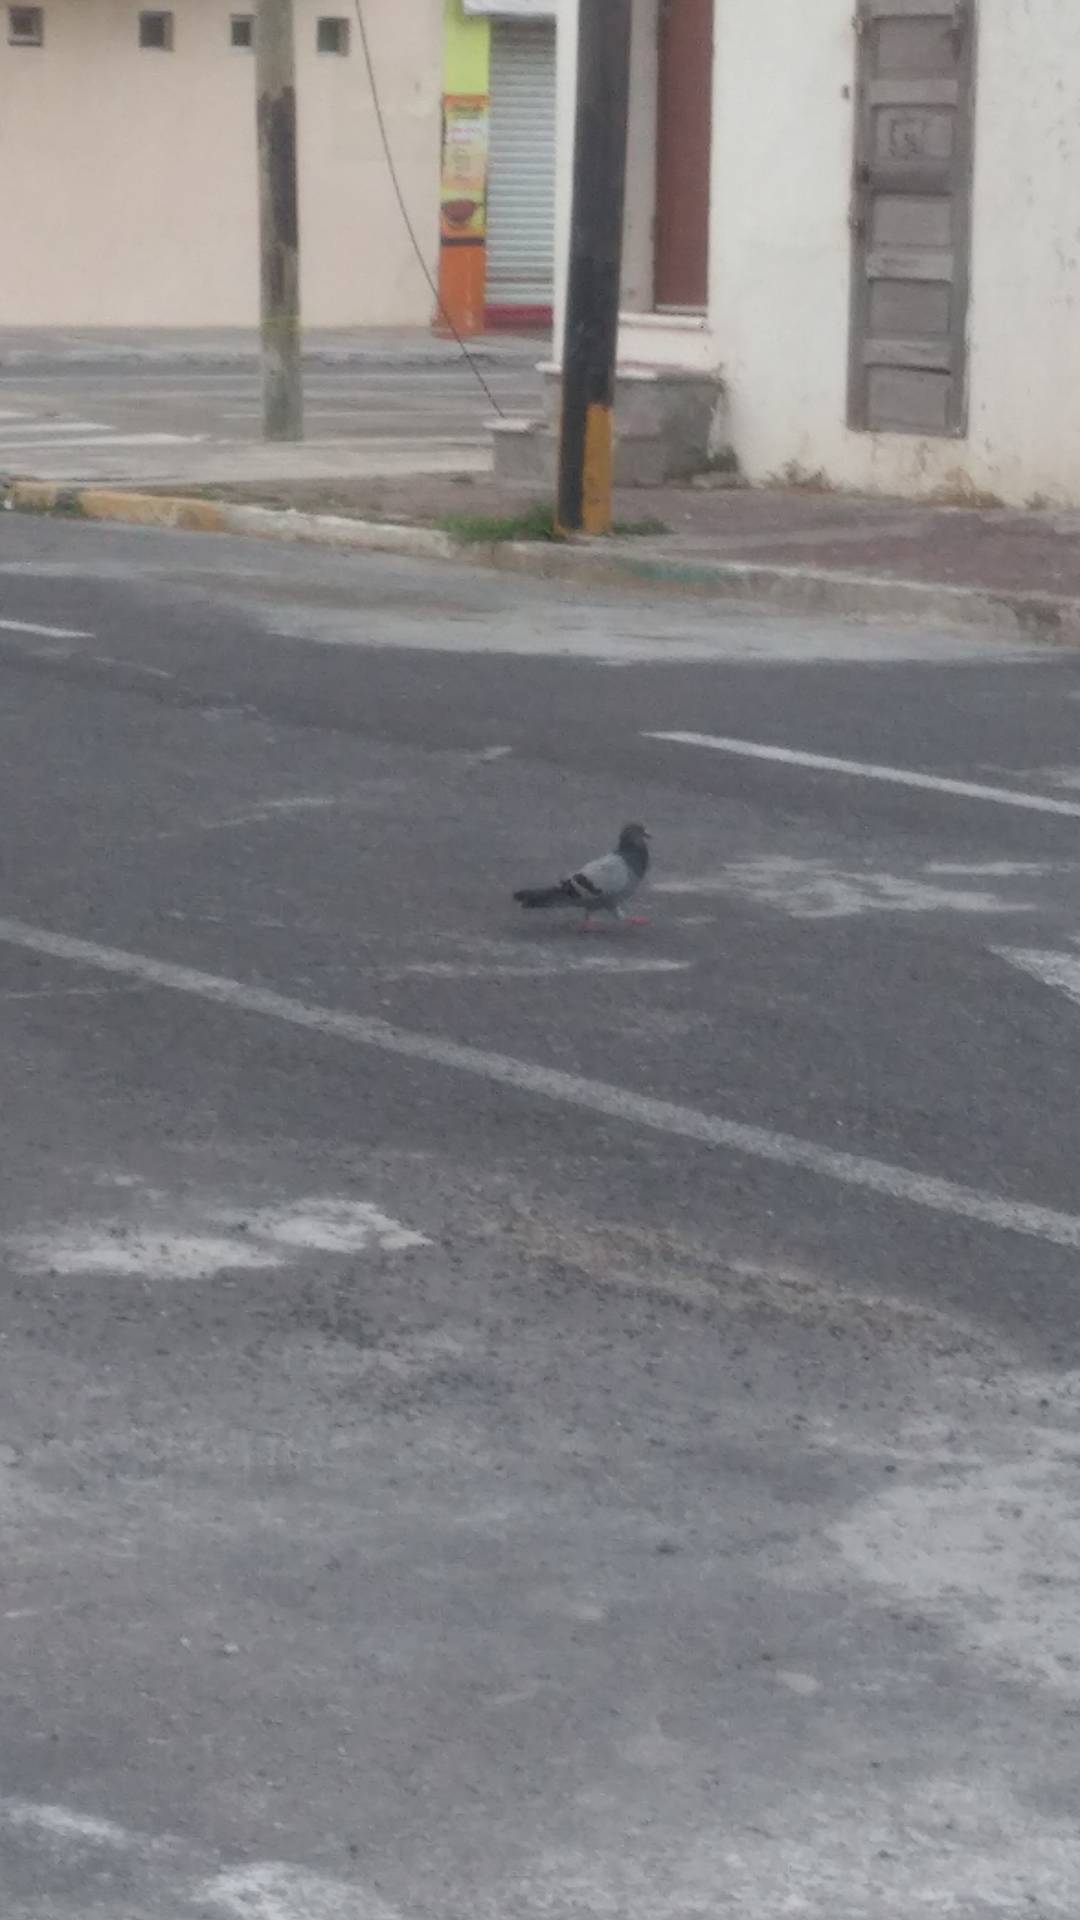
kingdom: Animalia
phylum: Chordata
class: Aves
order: Columbiformes
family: Columbidae
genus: Columba
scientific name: Columba livia
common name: Rock pigeon
